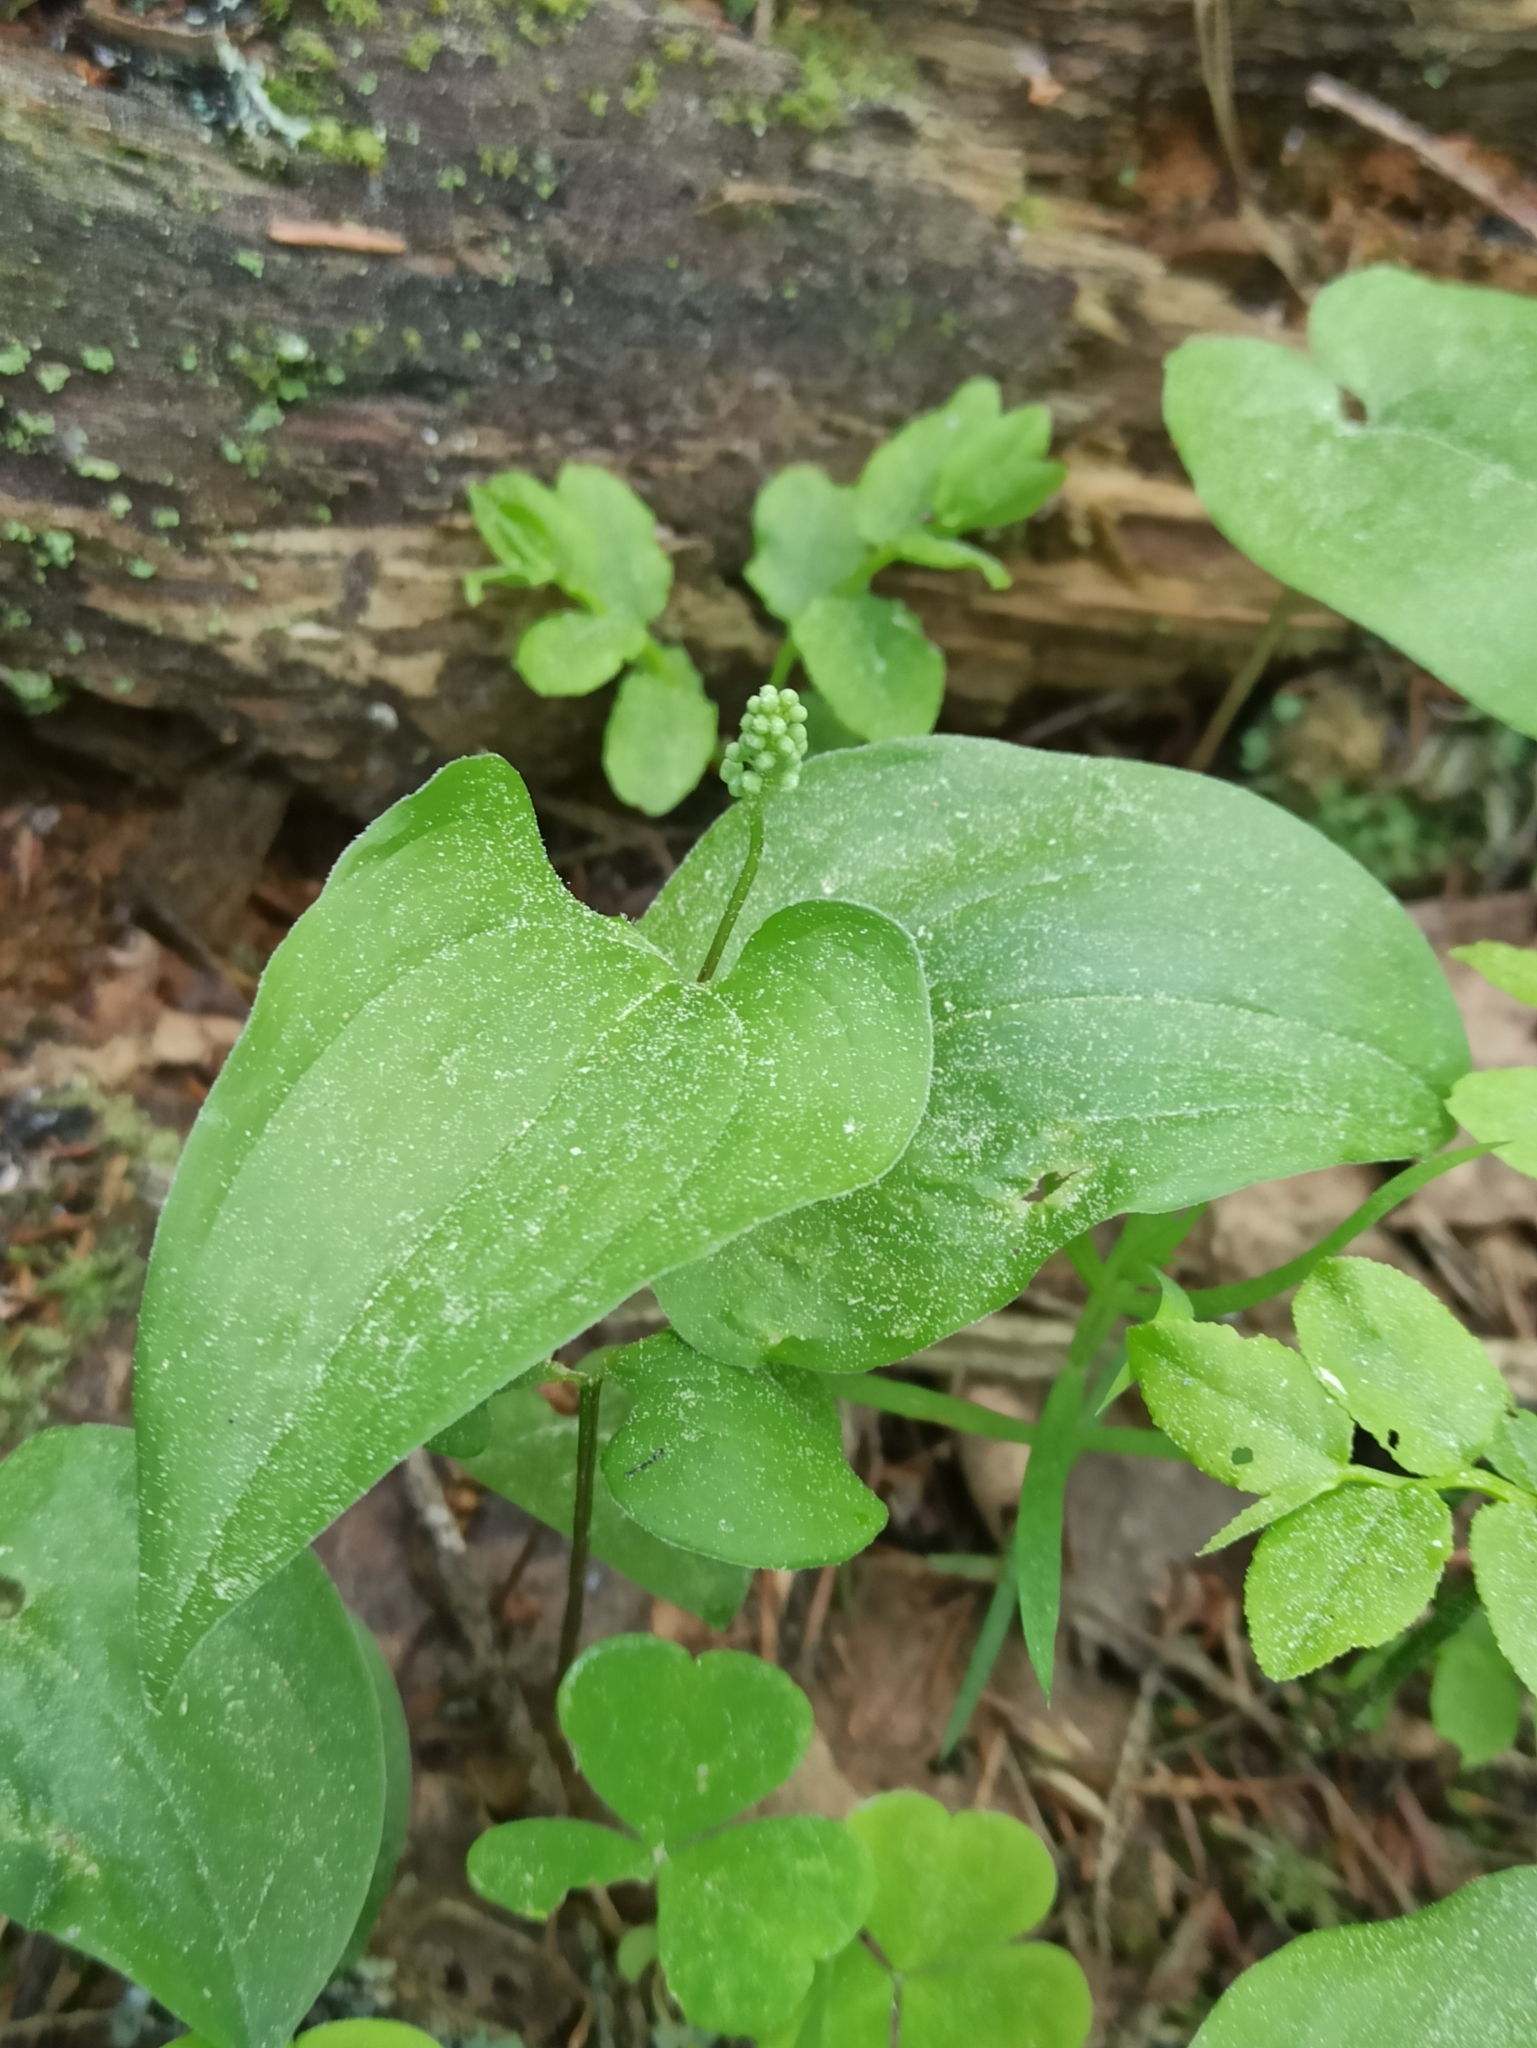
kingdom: Plantae
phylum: Tracheophyta
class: Liliopsida
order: Asparagales
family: Asparagaceae
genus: Maianthemum
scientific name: Maianthemum bifolium
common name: May lily
